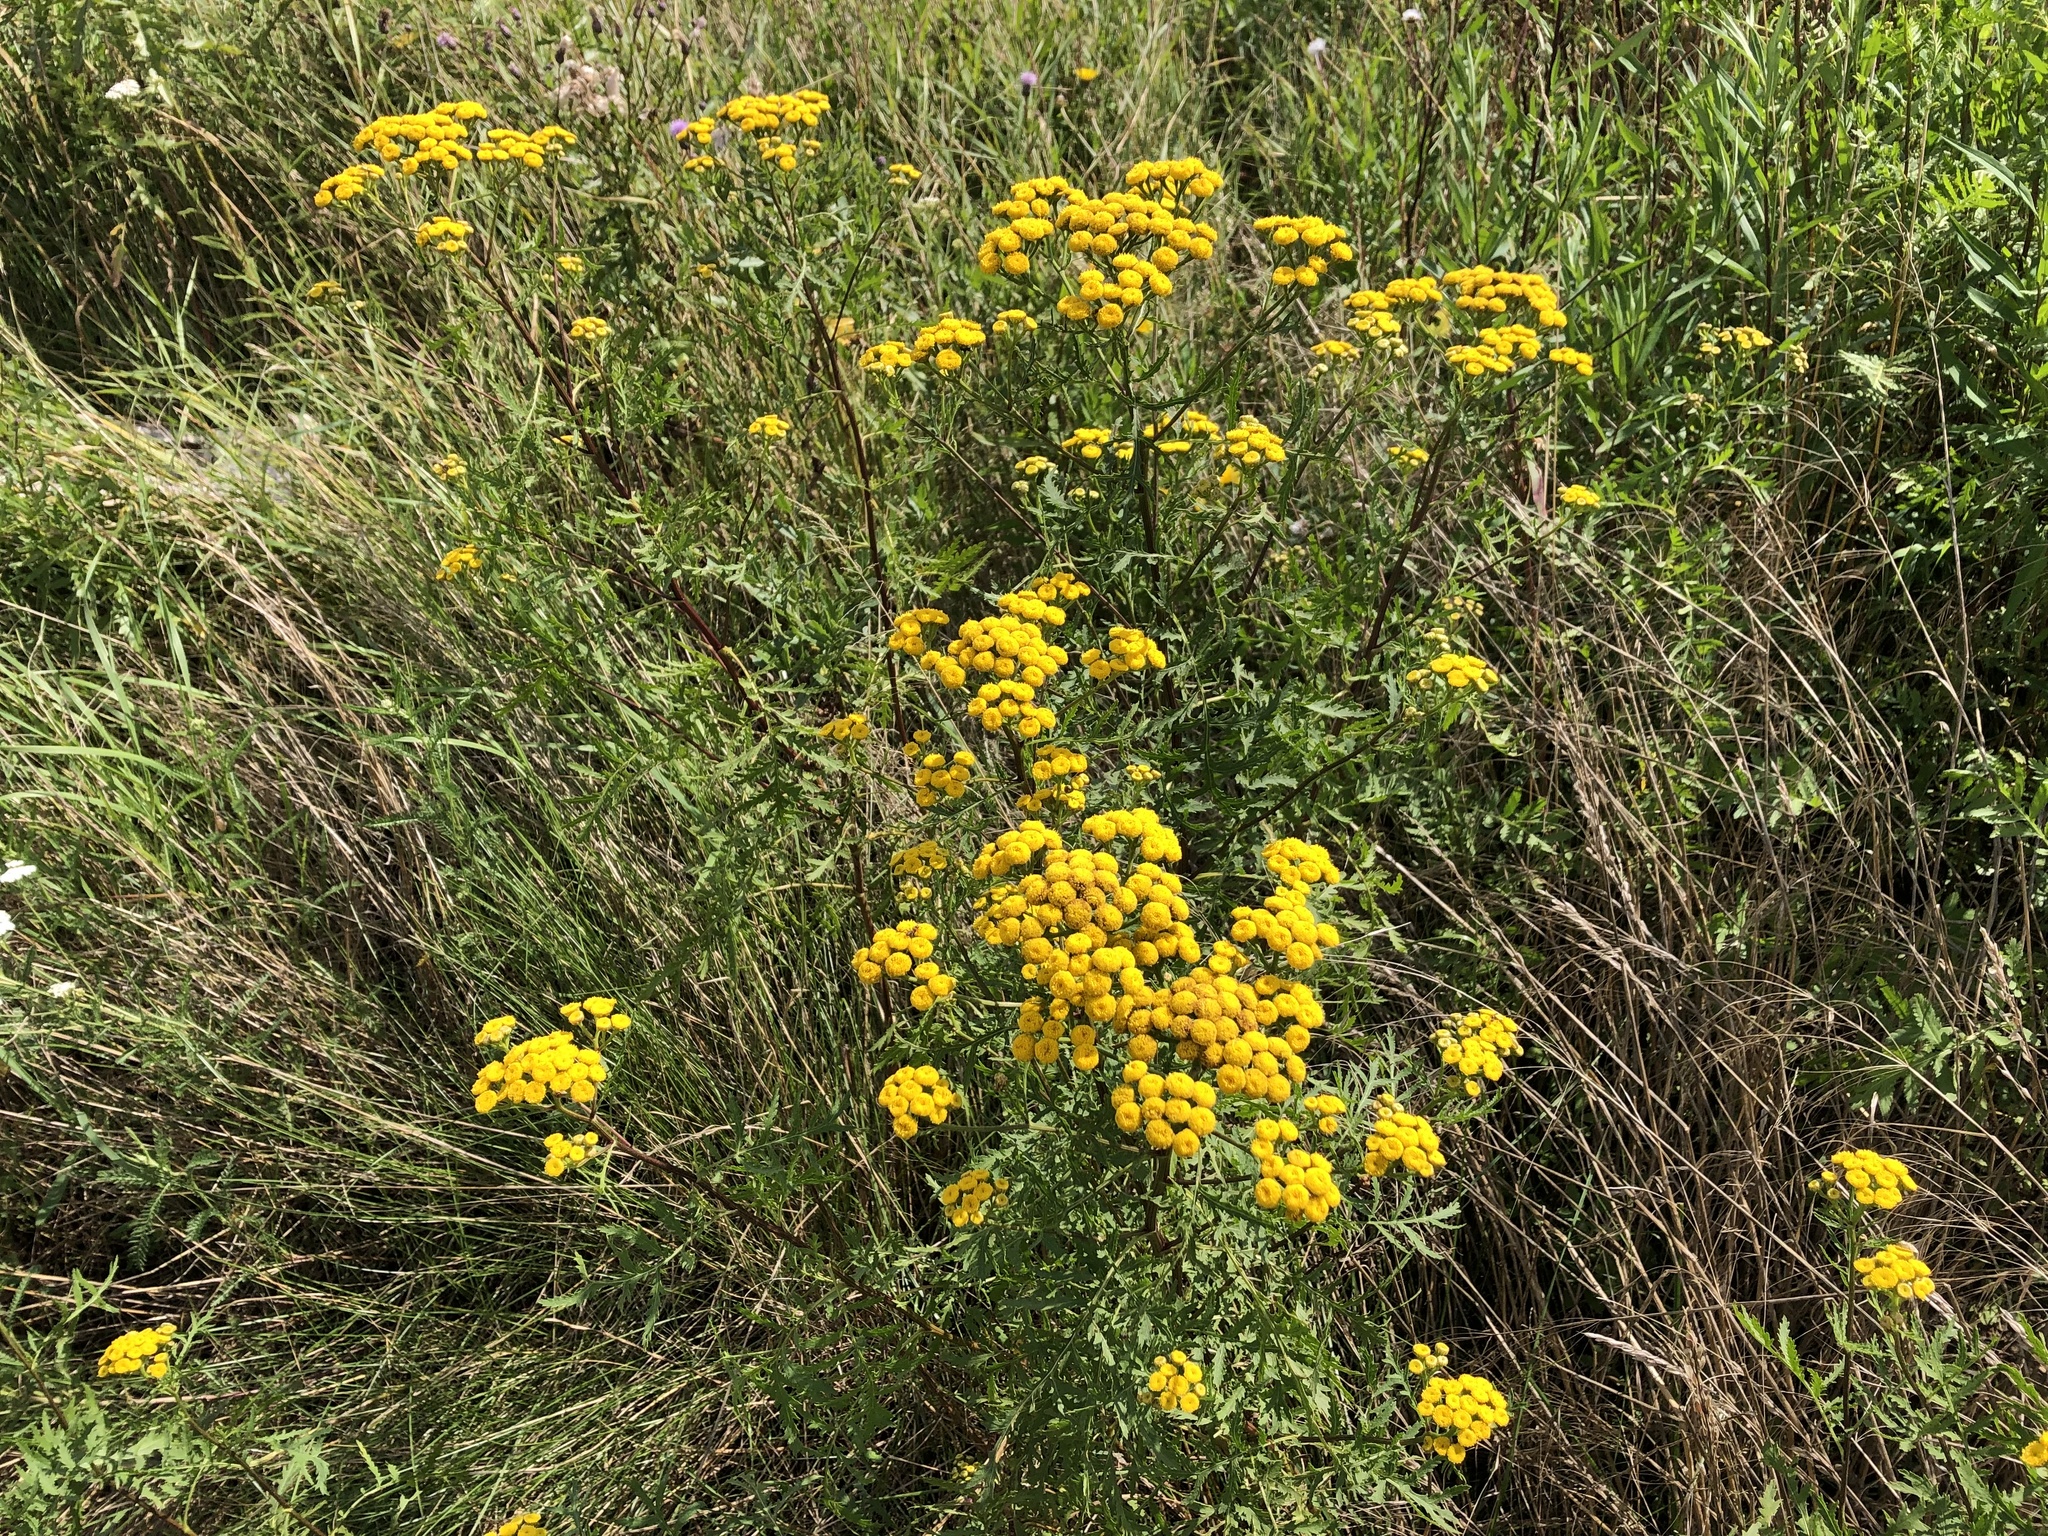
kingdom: Plantae
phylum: Tracheophyta
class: Magnoliopsida
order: Asterales
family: Asteraceae
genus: Tanacetum
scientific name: Tanacetum vulgare
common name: Common tansy
